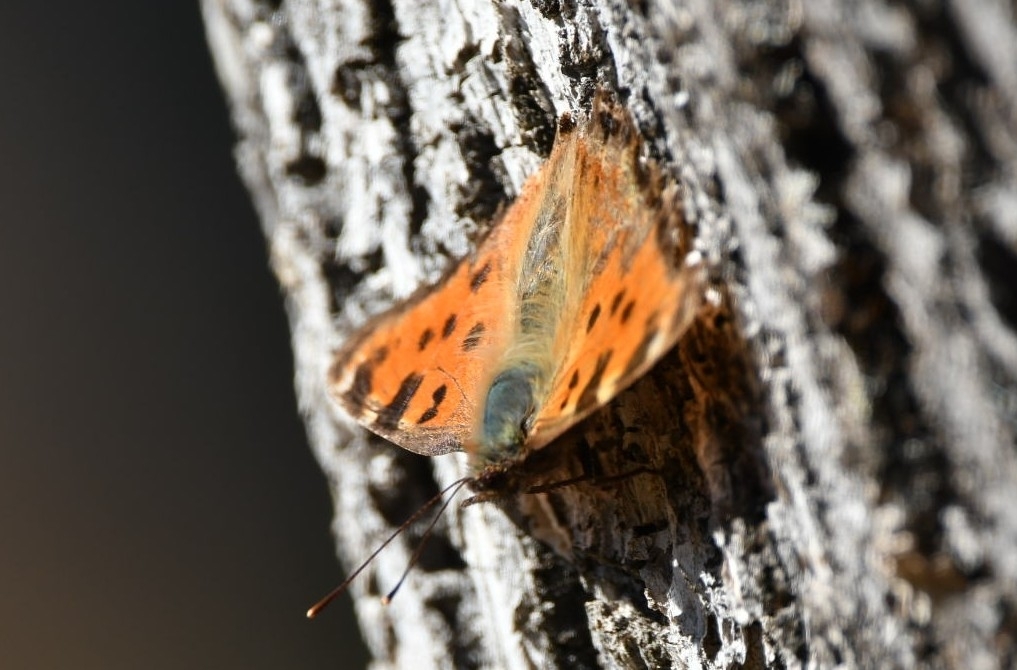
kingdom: Animalia
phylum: Arthropoda
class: Insecta
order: Lepidoptera
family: Nymphalidae
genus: Nymphalis
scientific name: Nymphalis polychloros
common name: Large tortoiseshell
